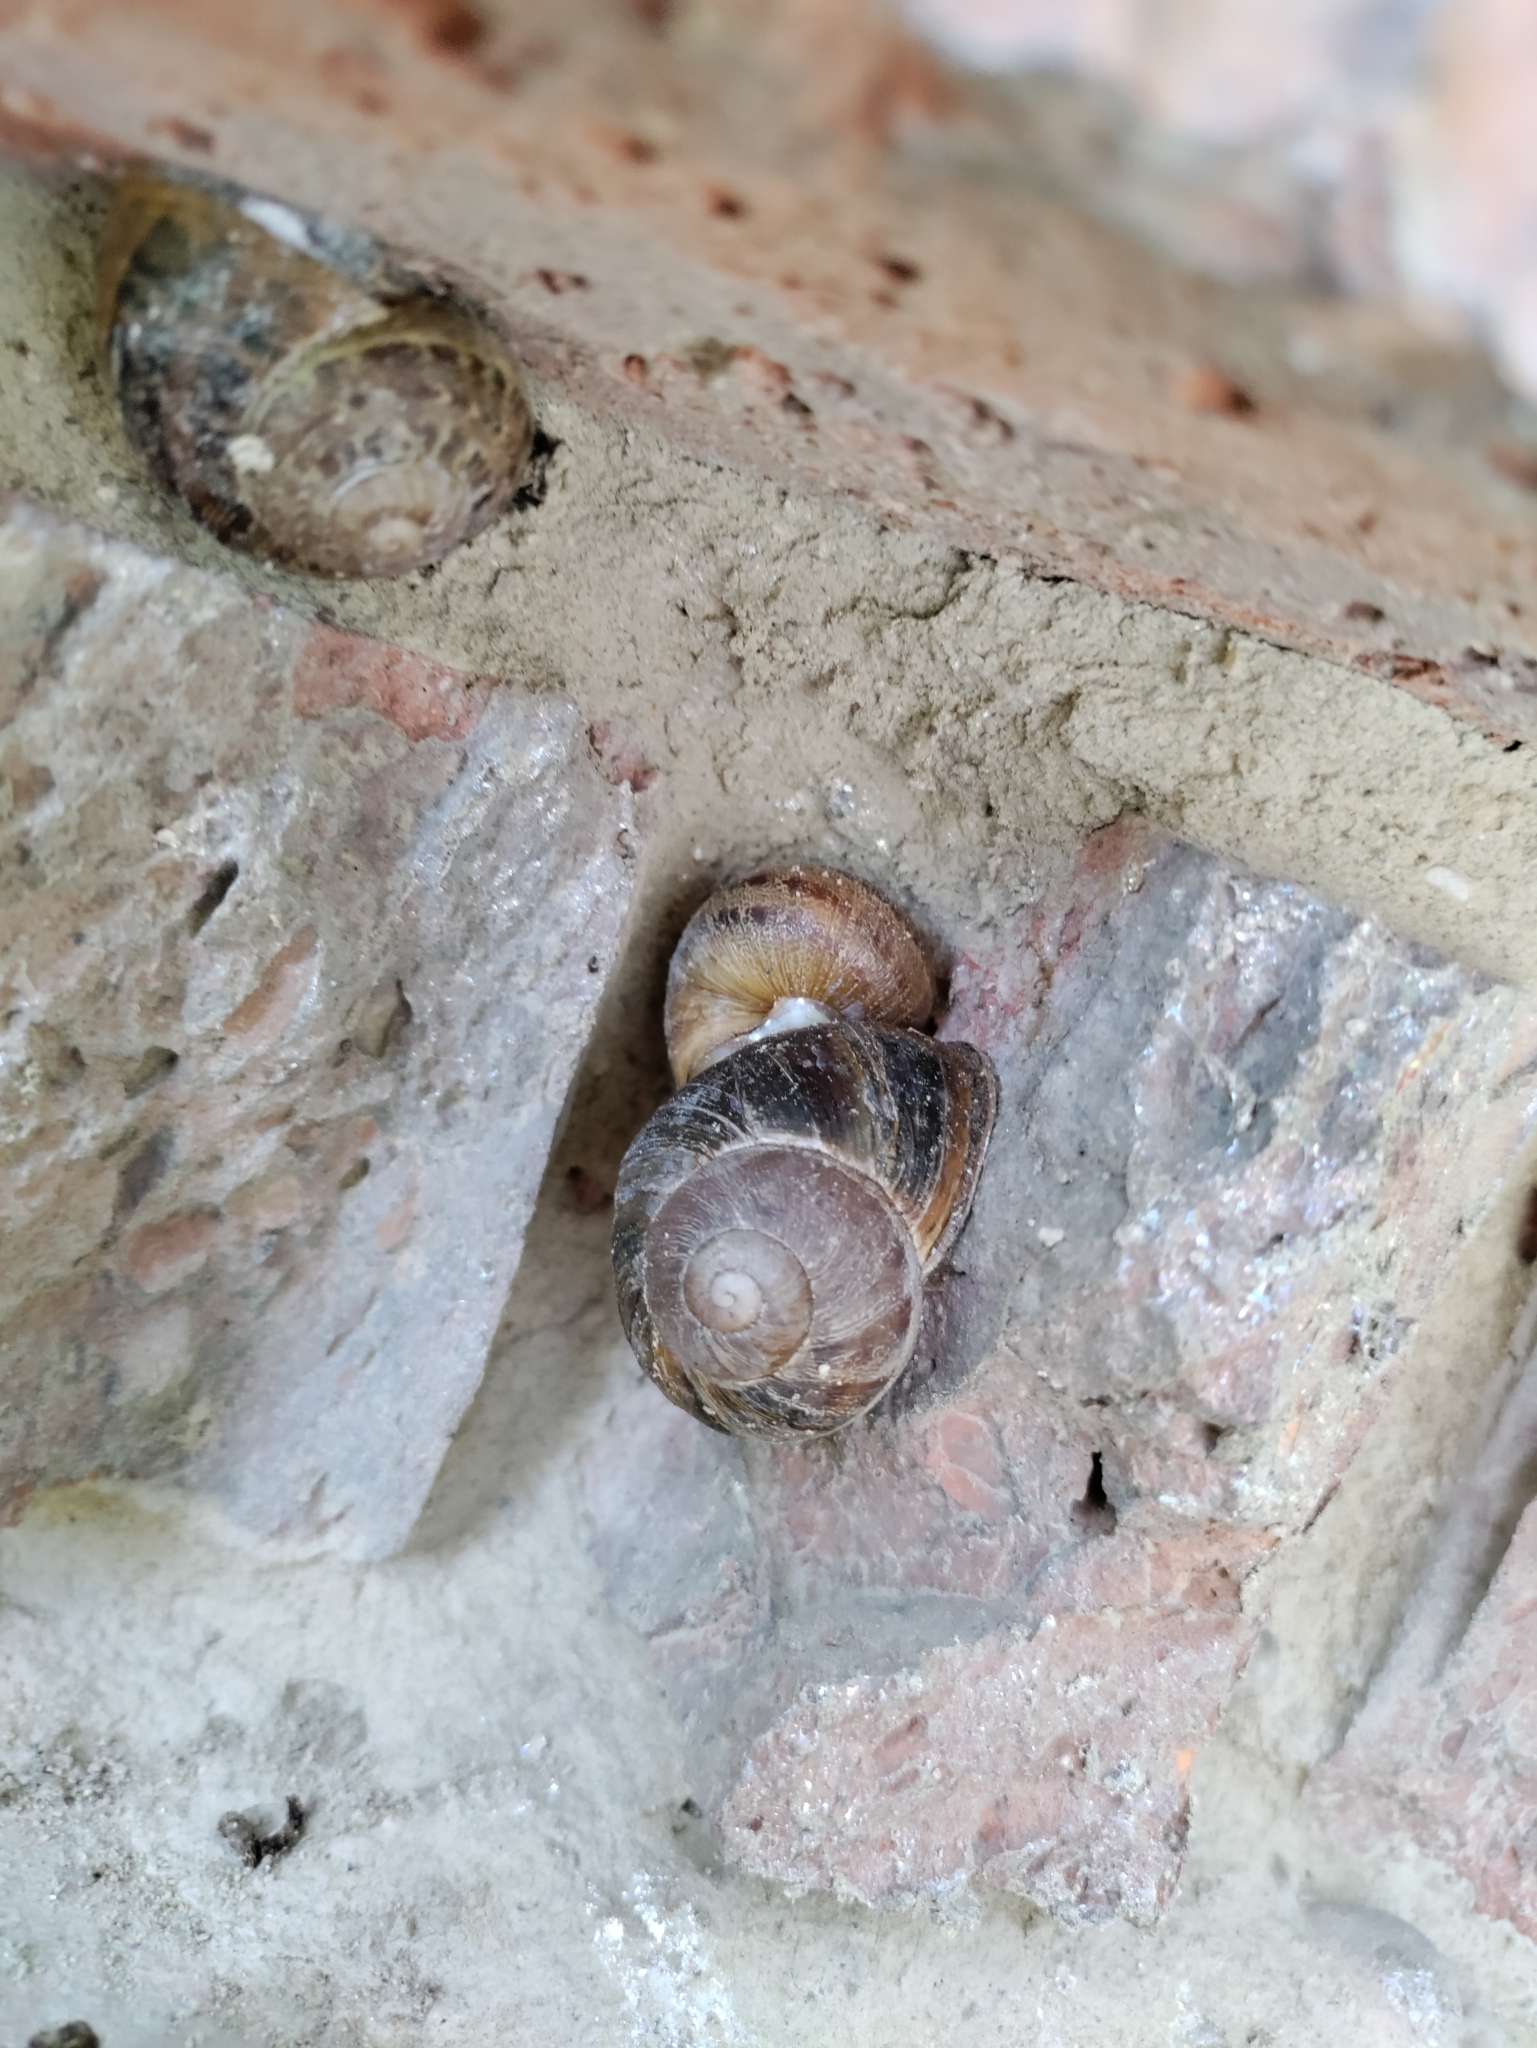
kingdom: Animalia
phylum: Mollusca
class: Gastropoda
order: Stylommatophora
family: Helicidae
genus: Cornu
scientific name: Cornu aspersum
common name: Brown garden snail
